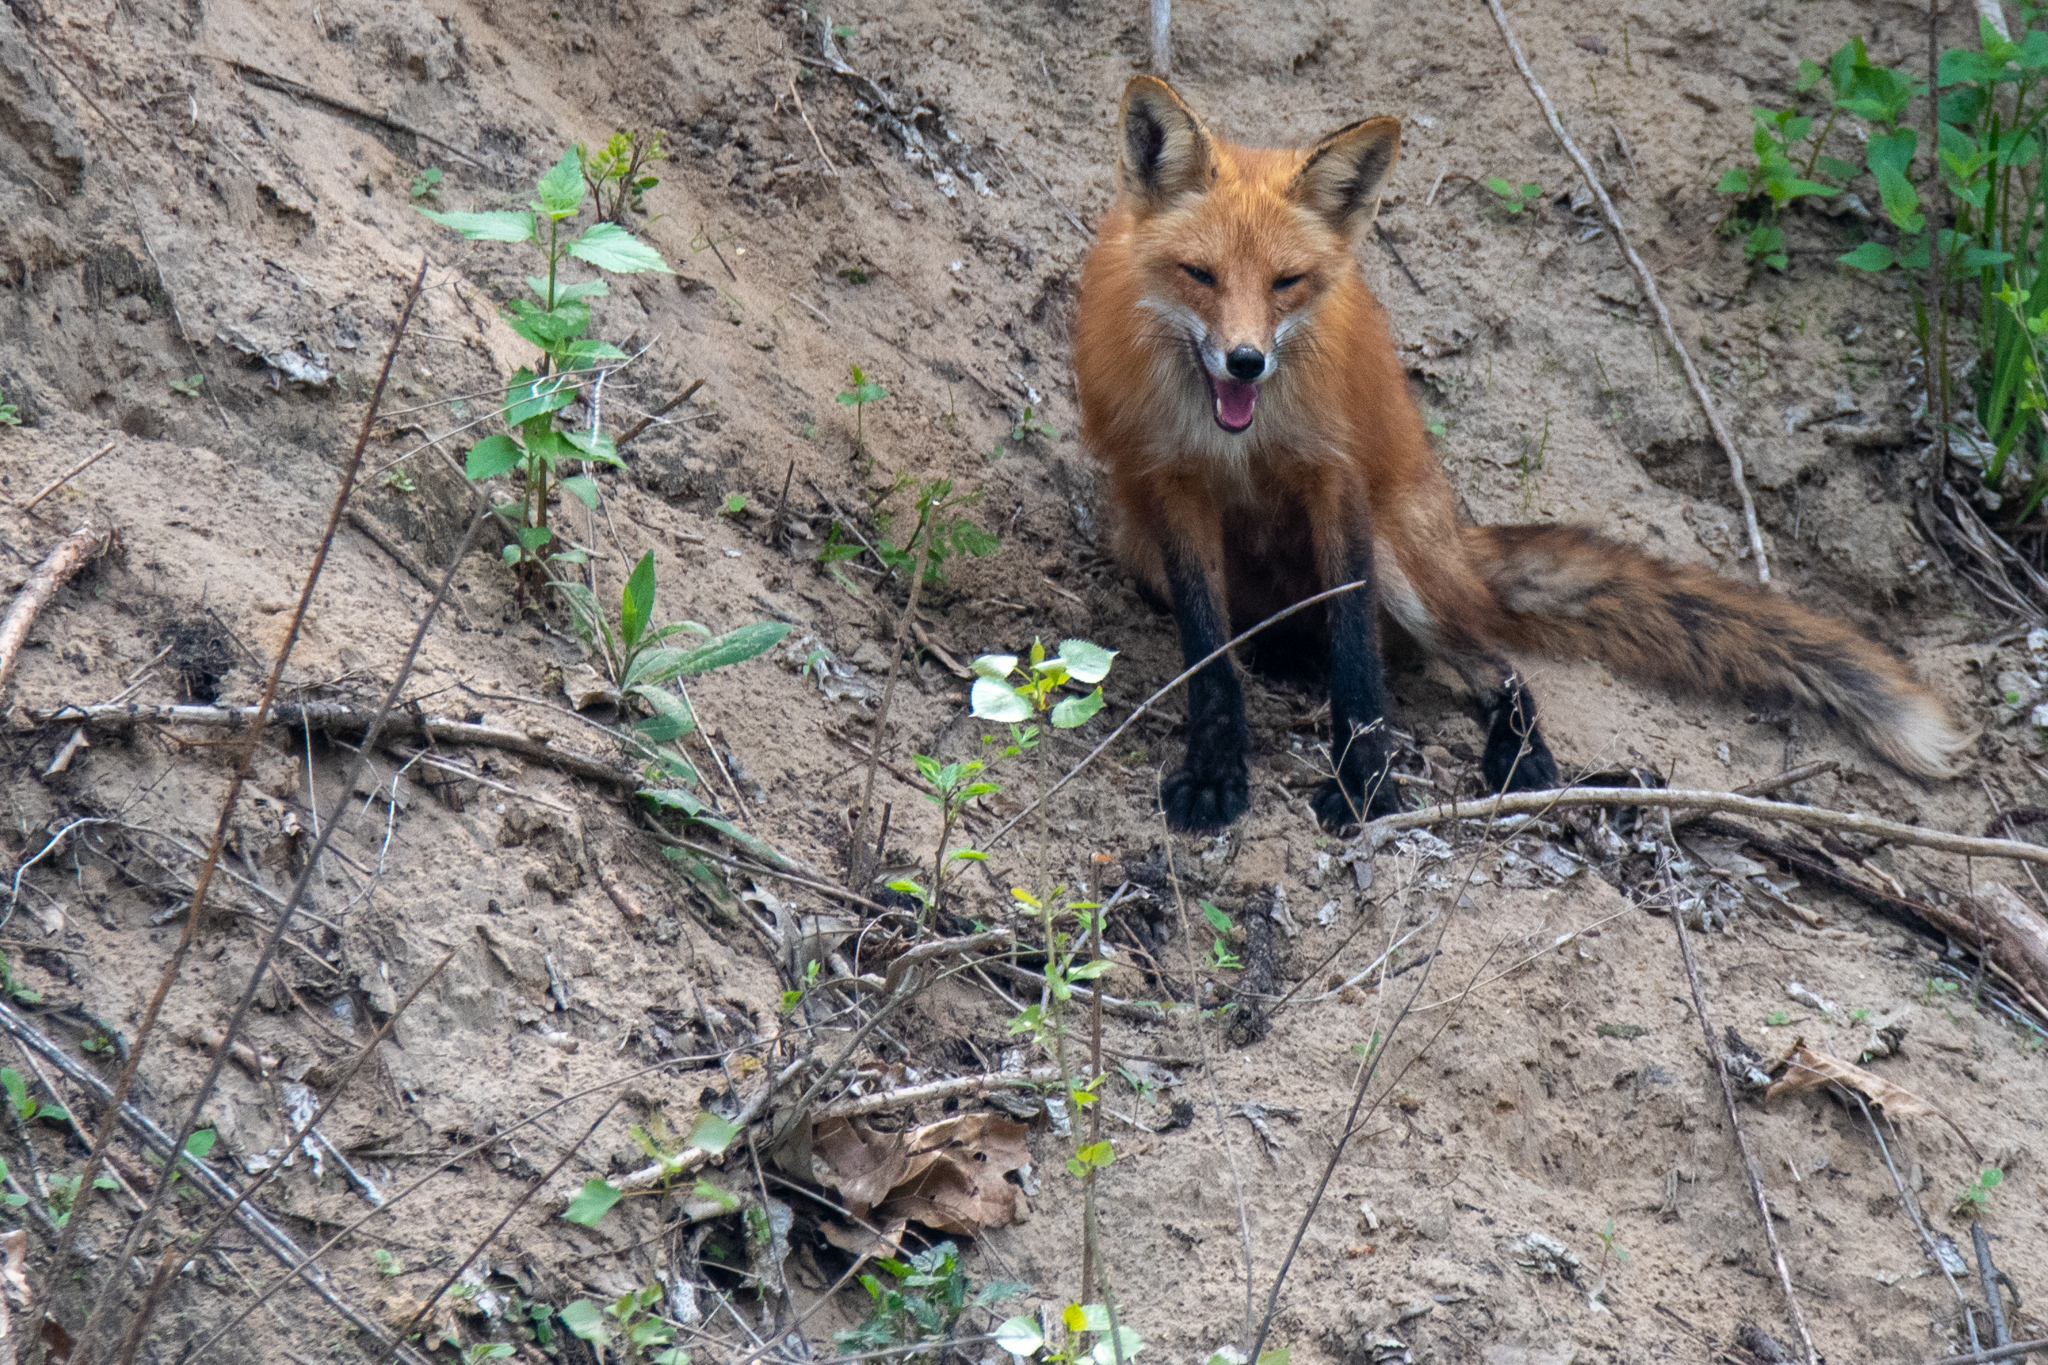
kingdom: Animalia
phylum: Chordata
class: Mammalia
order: Carnivora
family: Canidae
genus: Vulpes
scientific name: Vulpes vulpes
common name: Red fox
